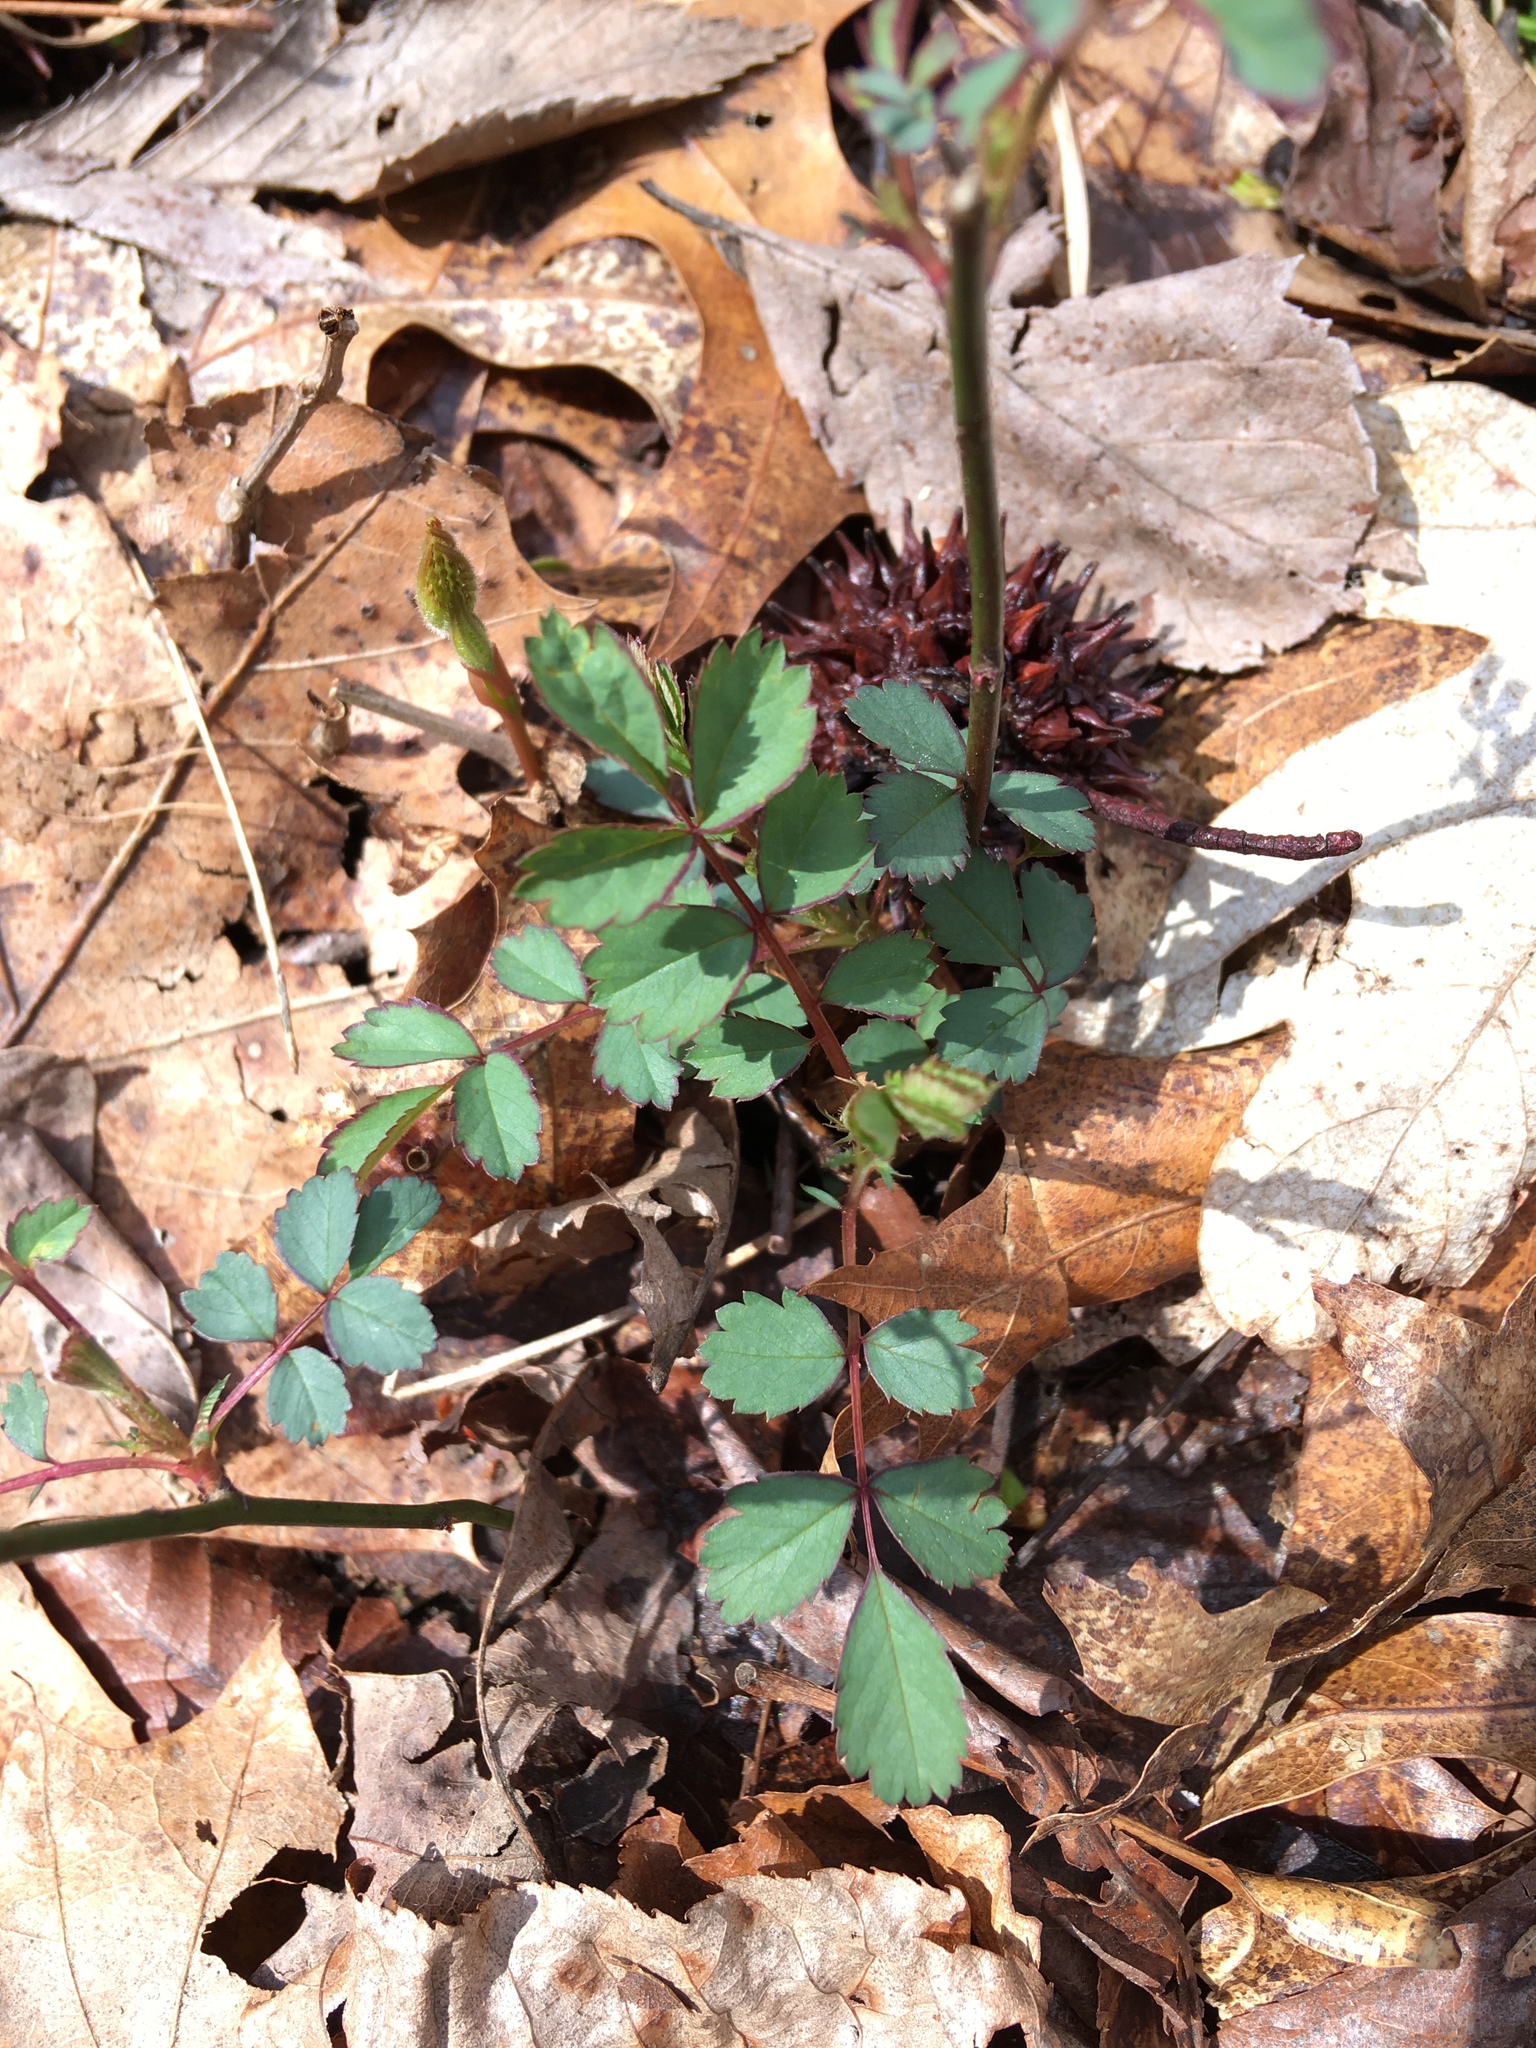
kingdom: Plantae
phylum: Tracheophyta
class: Magnoliopsida
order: Rosales
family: Rosaceae
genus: Rosa
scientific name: Rosa multiflora
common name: Multiflora rose
